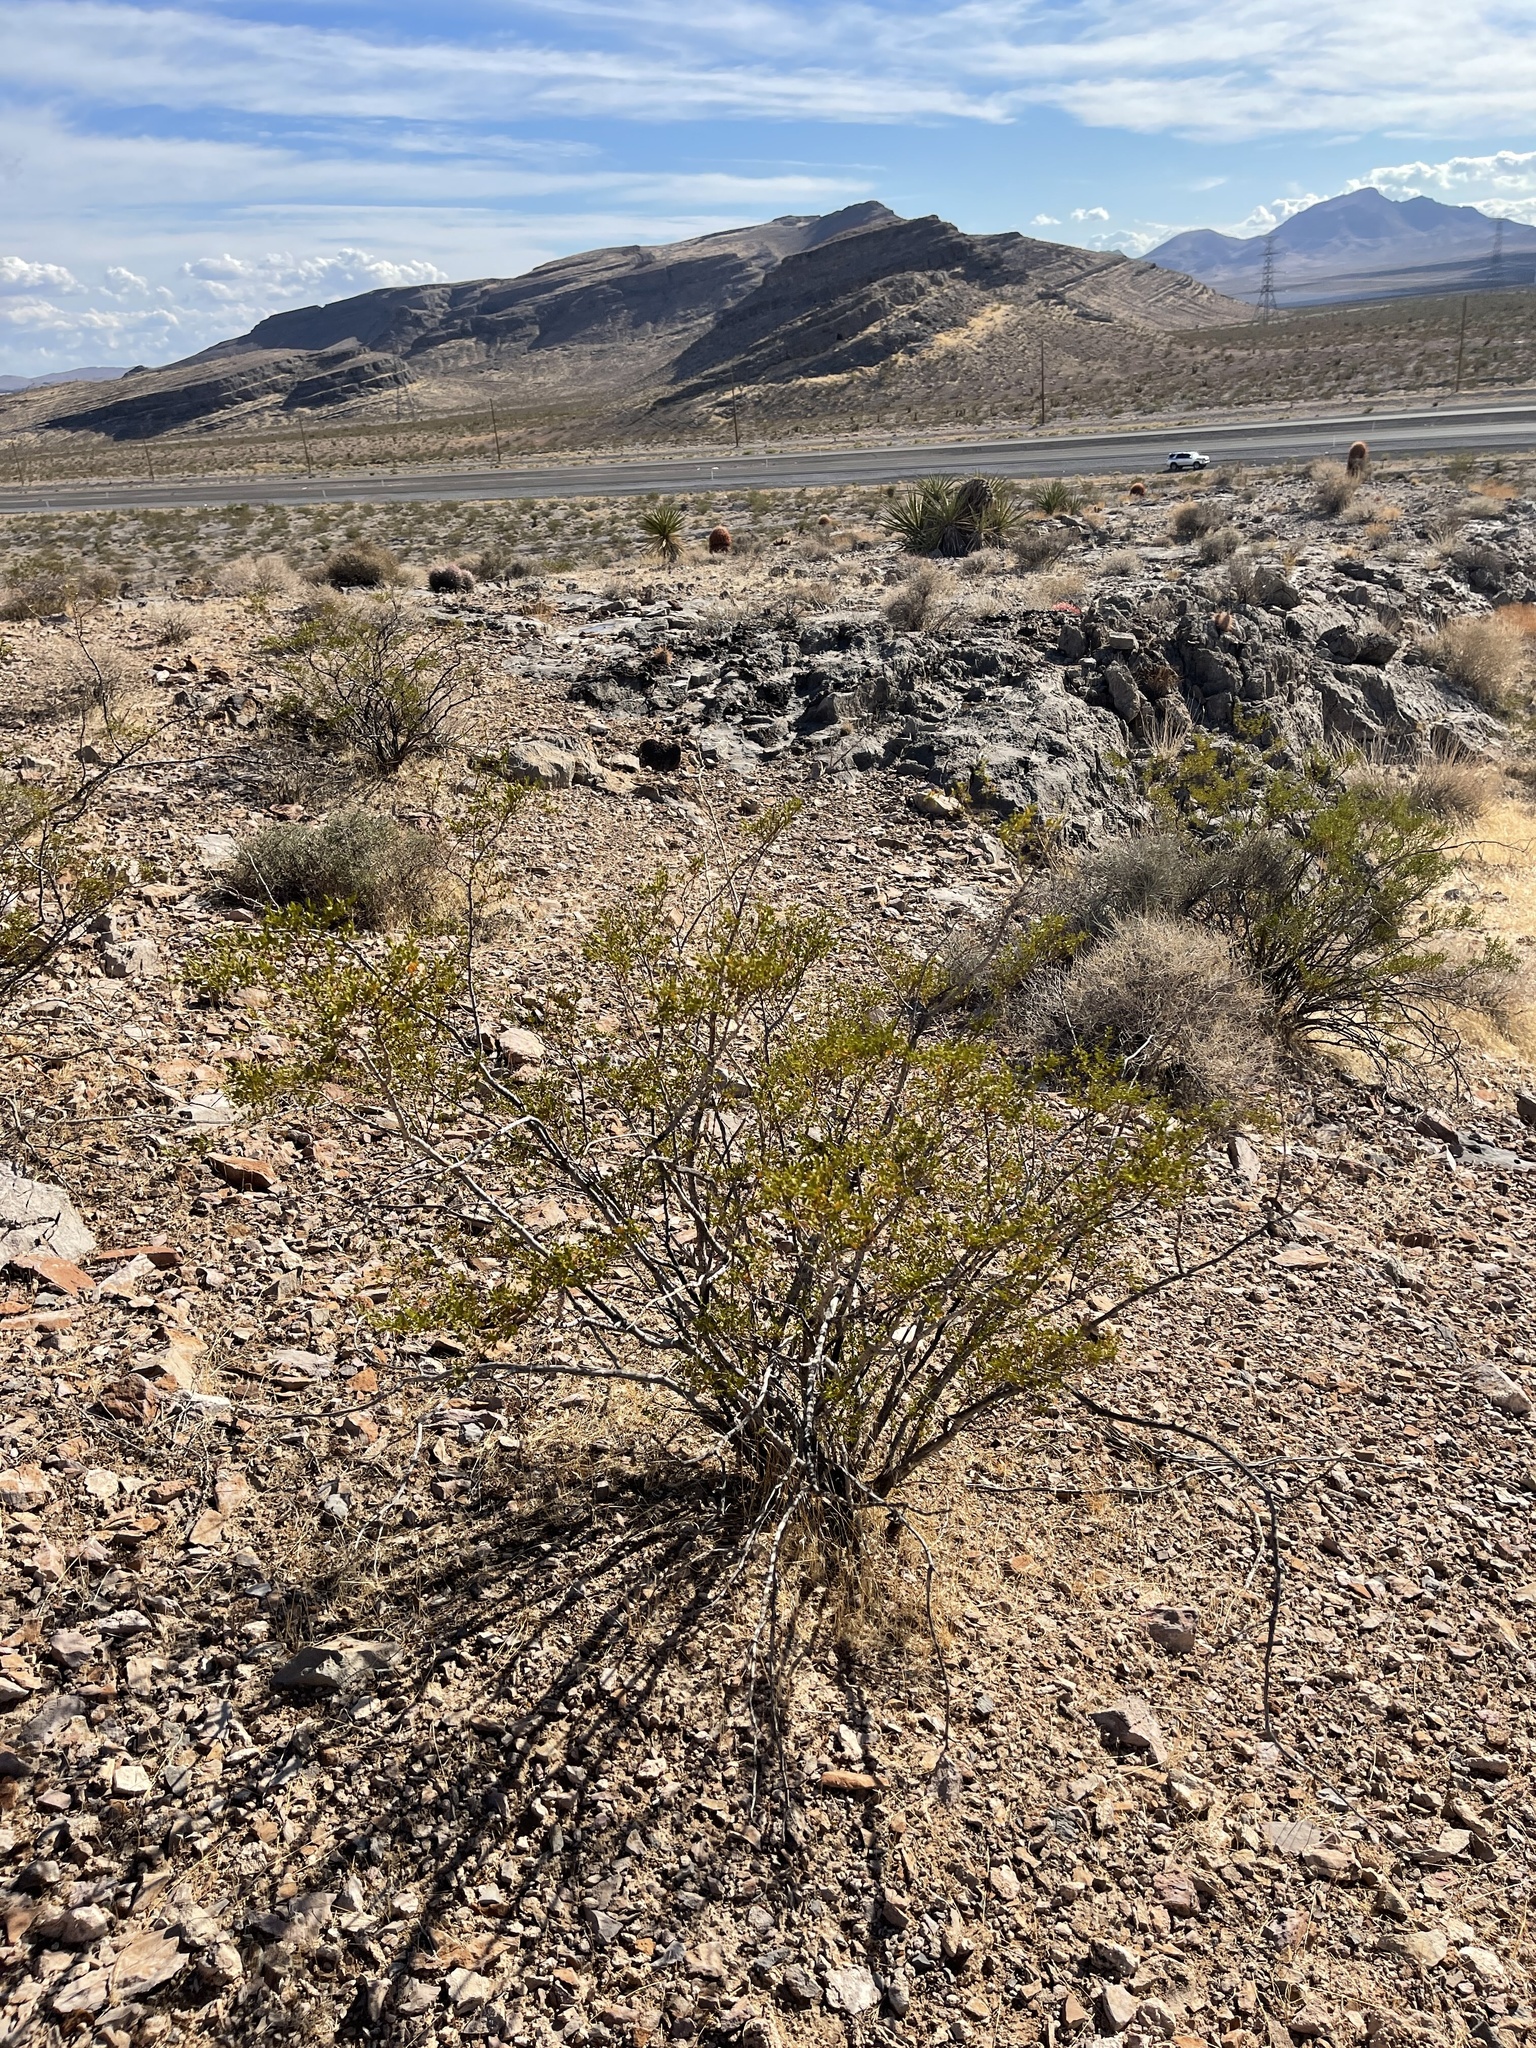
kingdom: Plantae
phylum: Tracheophyta
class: Magnoliopsida
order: Zygophyllales
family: Zygophyllaceae
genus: Larrea
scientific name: Larrea tridentata
